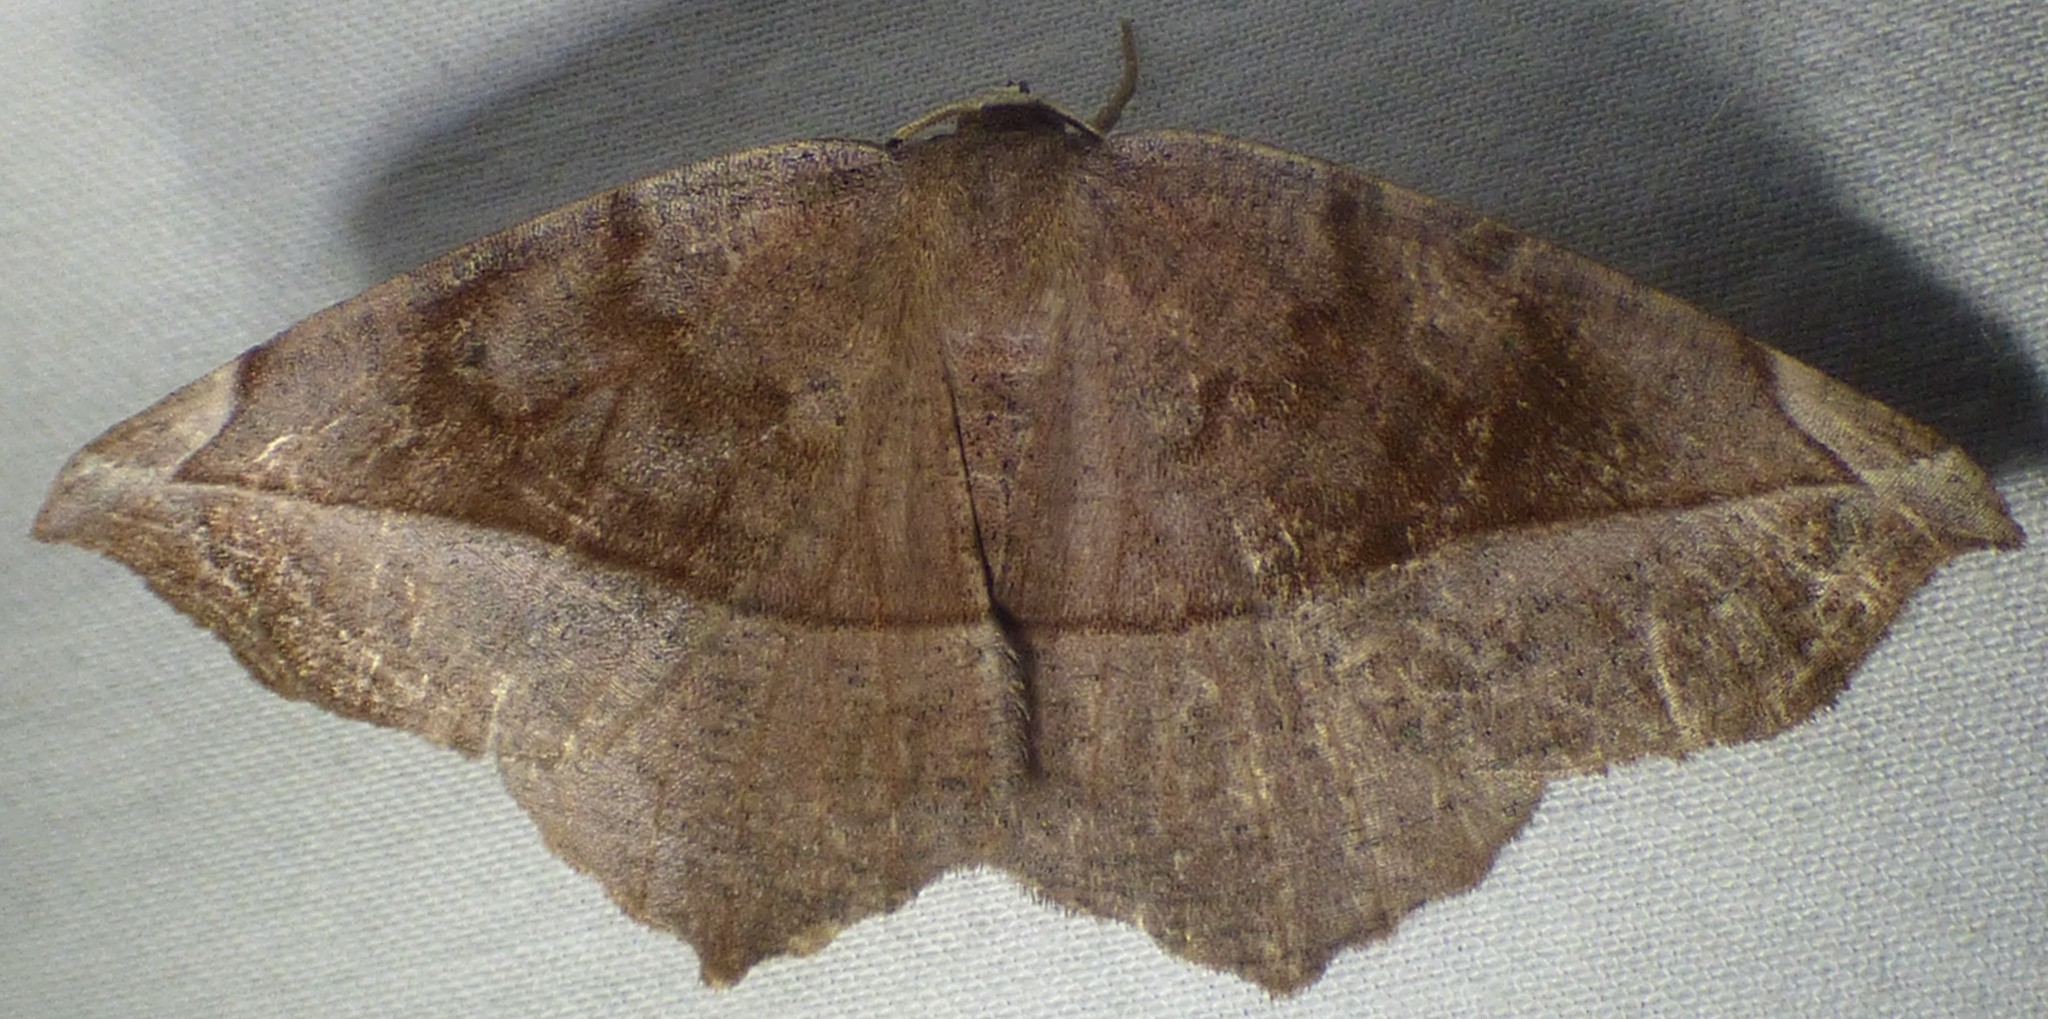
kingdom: Animalia
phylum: Arthropoda
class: Insecta
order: Lepidoptera
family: Geometridae
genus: Eutrapela
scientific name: Eutrapela clemataria
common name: Curved-toothed geometer
